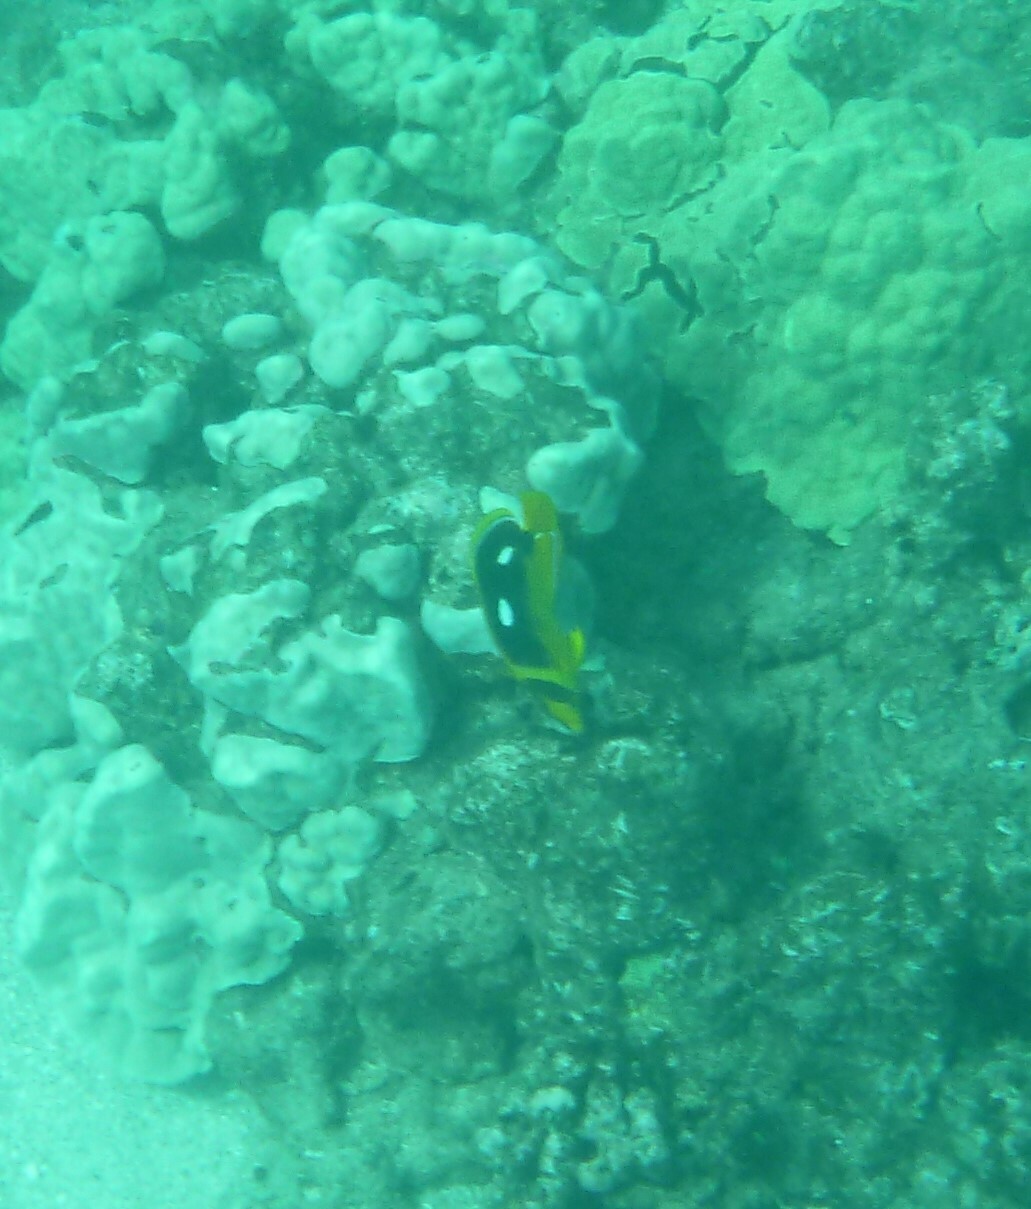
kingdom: Animalia
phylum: Chordata
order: Perciformes
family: Chaetodontidae
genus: Chaetodon
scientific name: Chaetodon quadrimaculatus
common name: Fourspot butterflyfish
